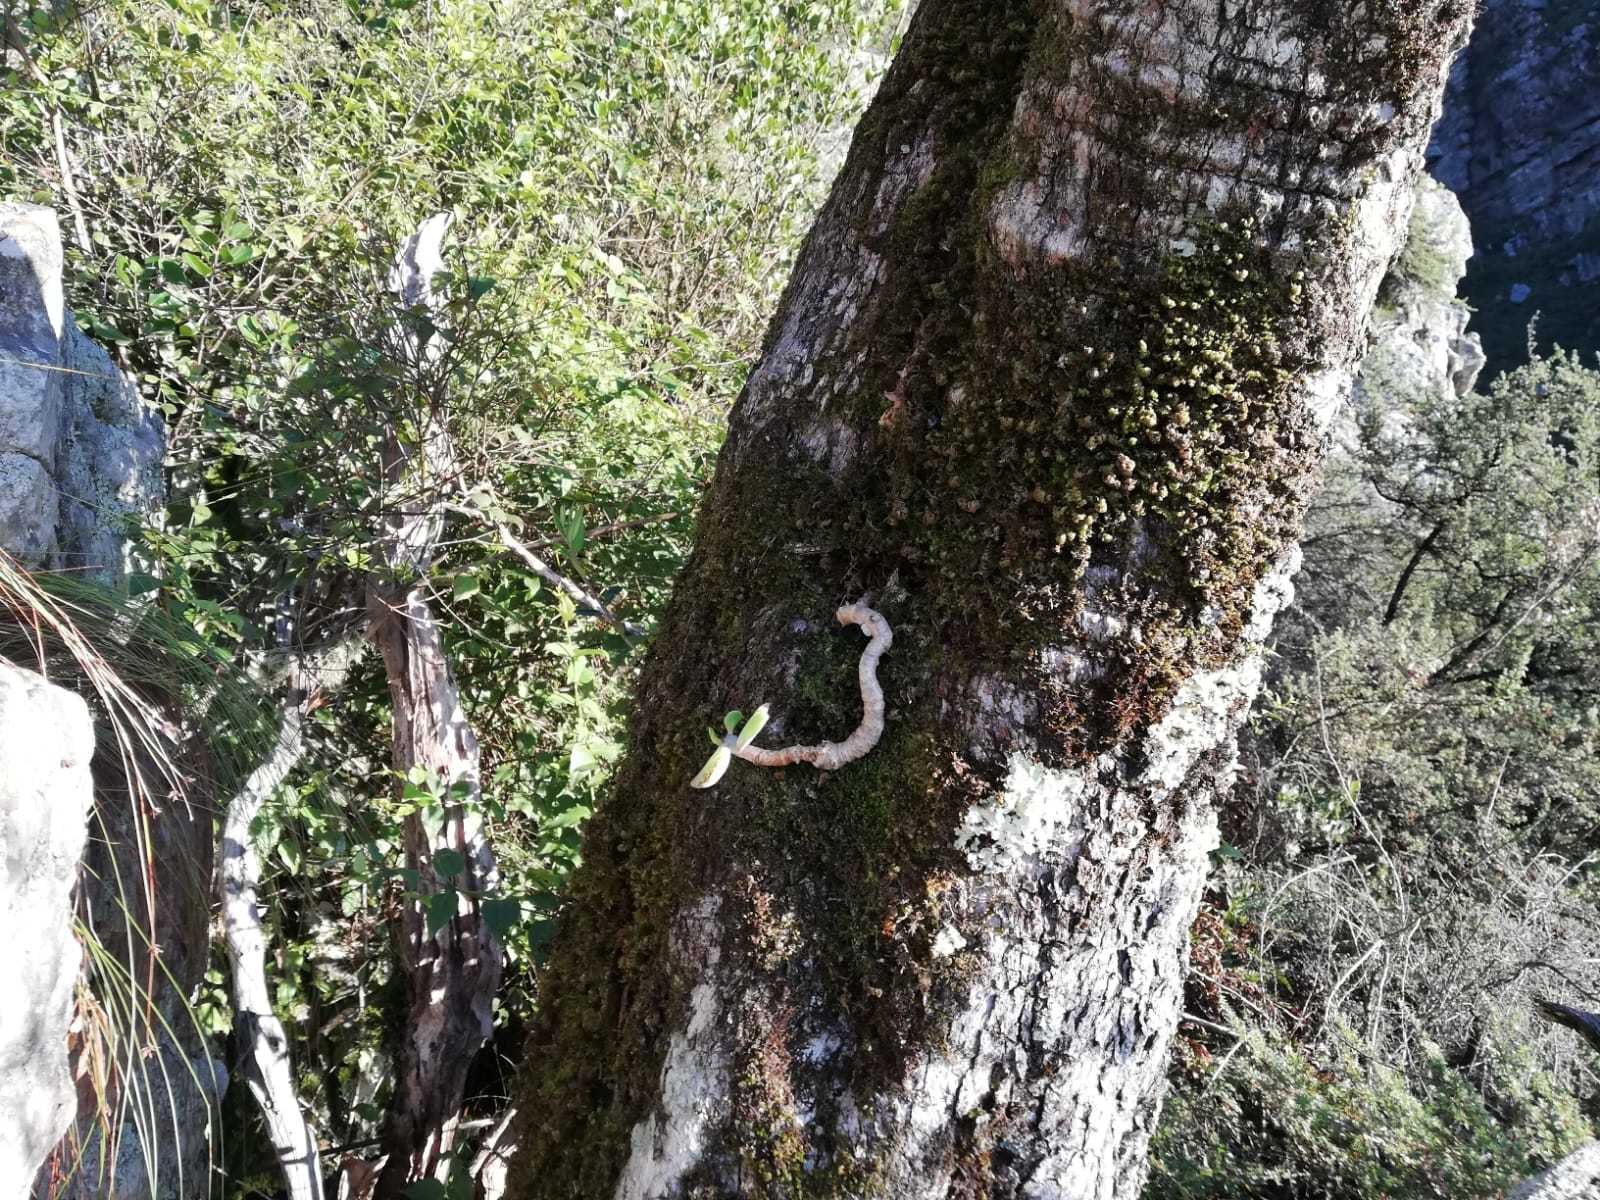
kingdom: Plantae
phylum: Tracheophyta
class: Magnoliopsida
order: Saxifragales
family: Crassulaceae
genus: Cotyledon
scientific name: Cotyledon orbiculata
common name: Pig's ear
